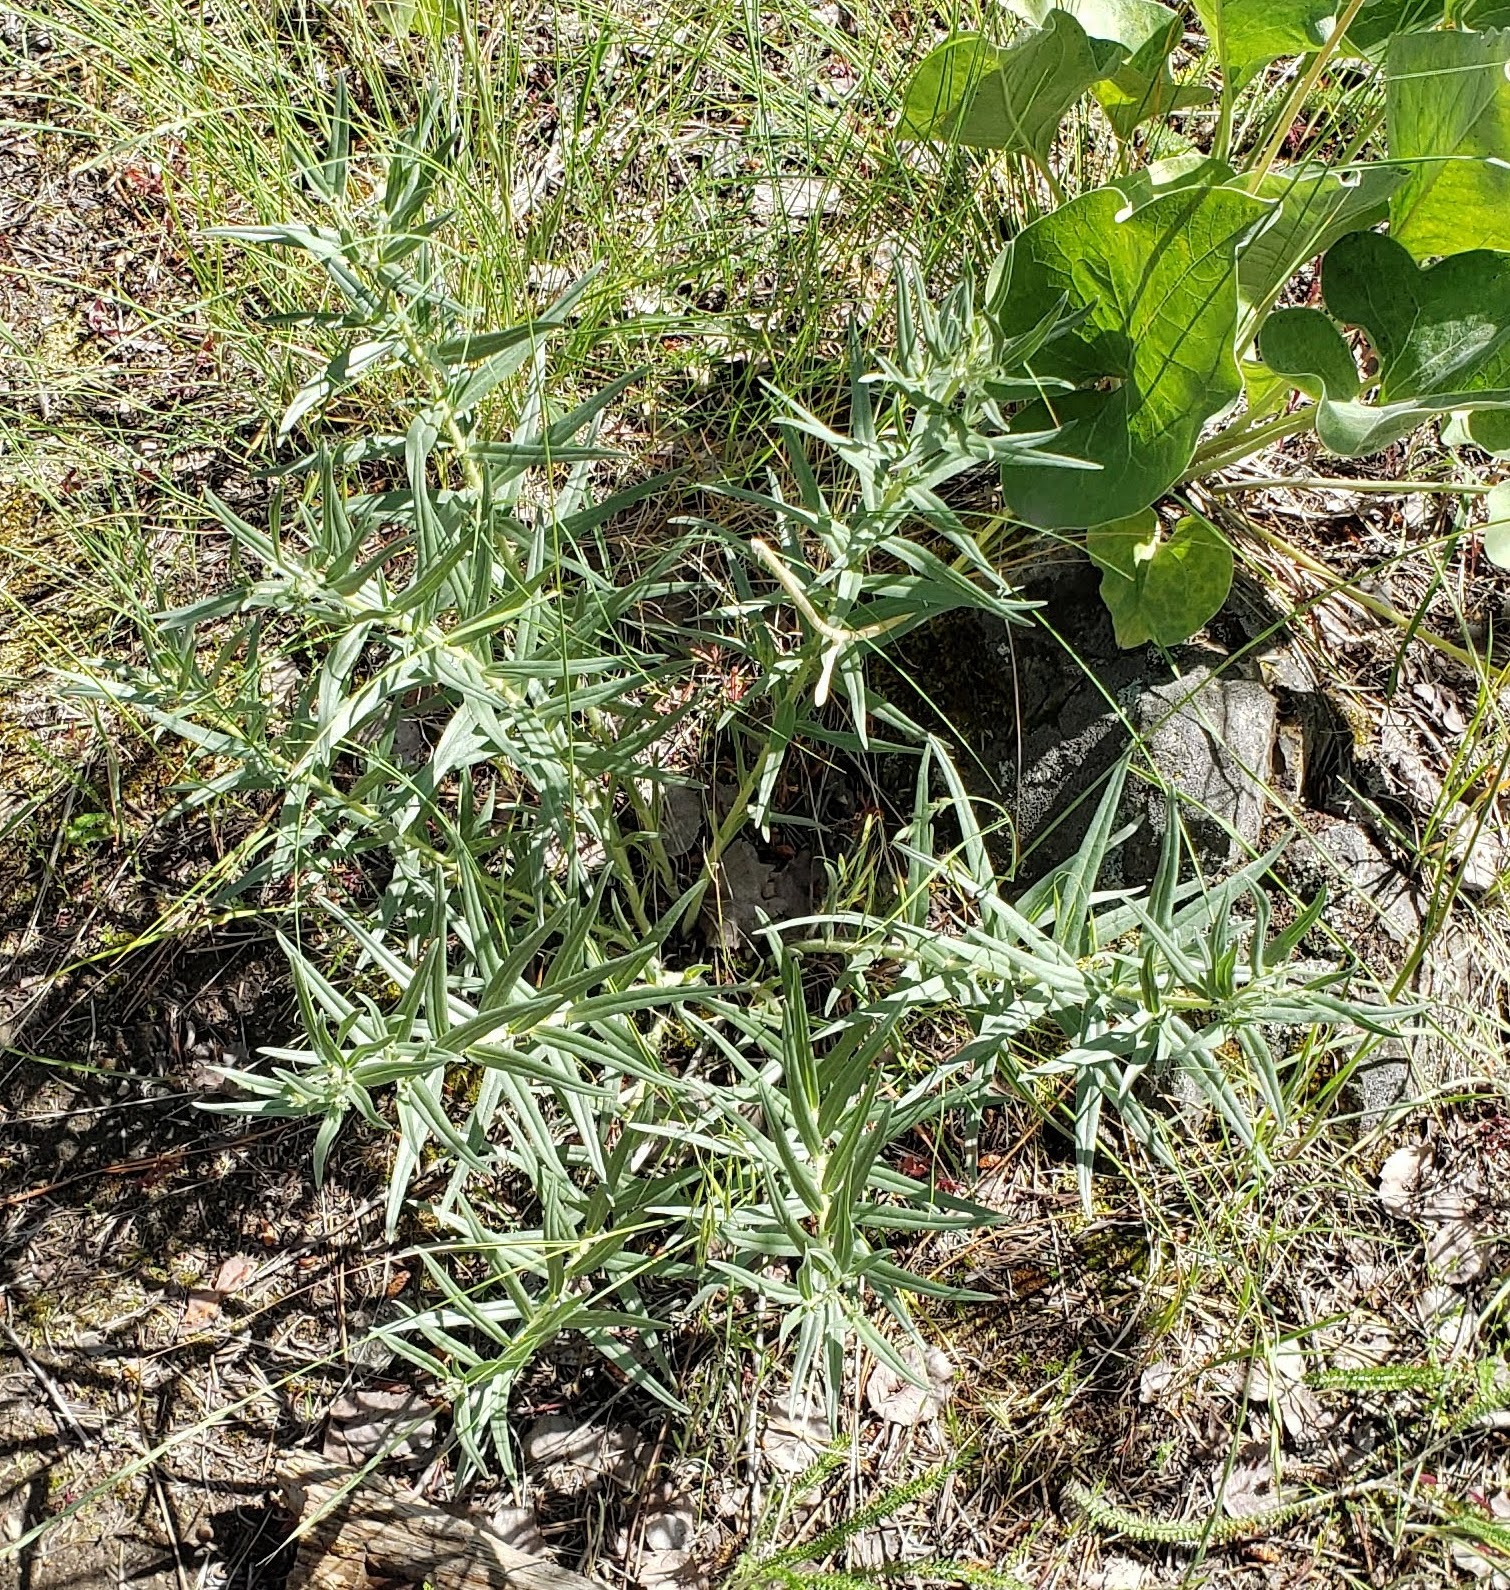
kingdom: Plantae
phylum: Tracheophyta
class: Magnoliopsida
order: Boraginales
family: Boraginaceae
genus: Lithospermum
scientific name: Lithospermum ruderale
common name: Western gromwell
